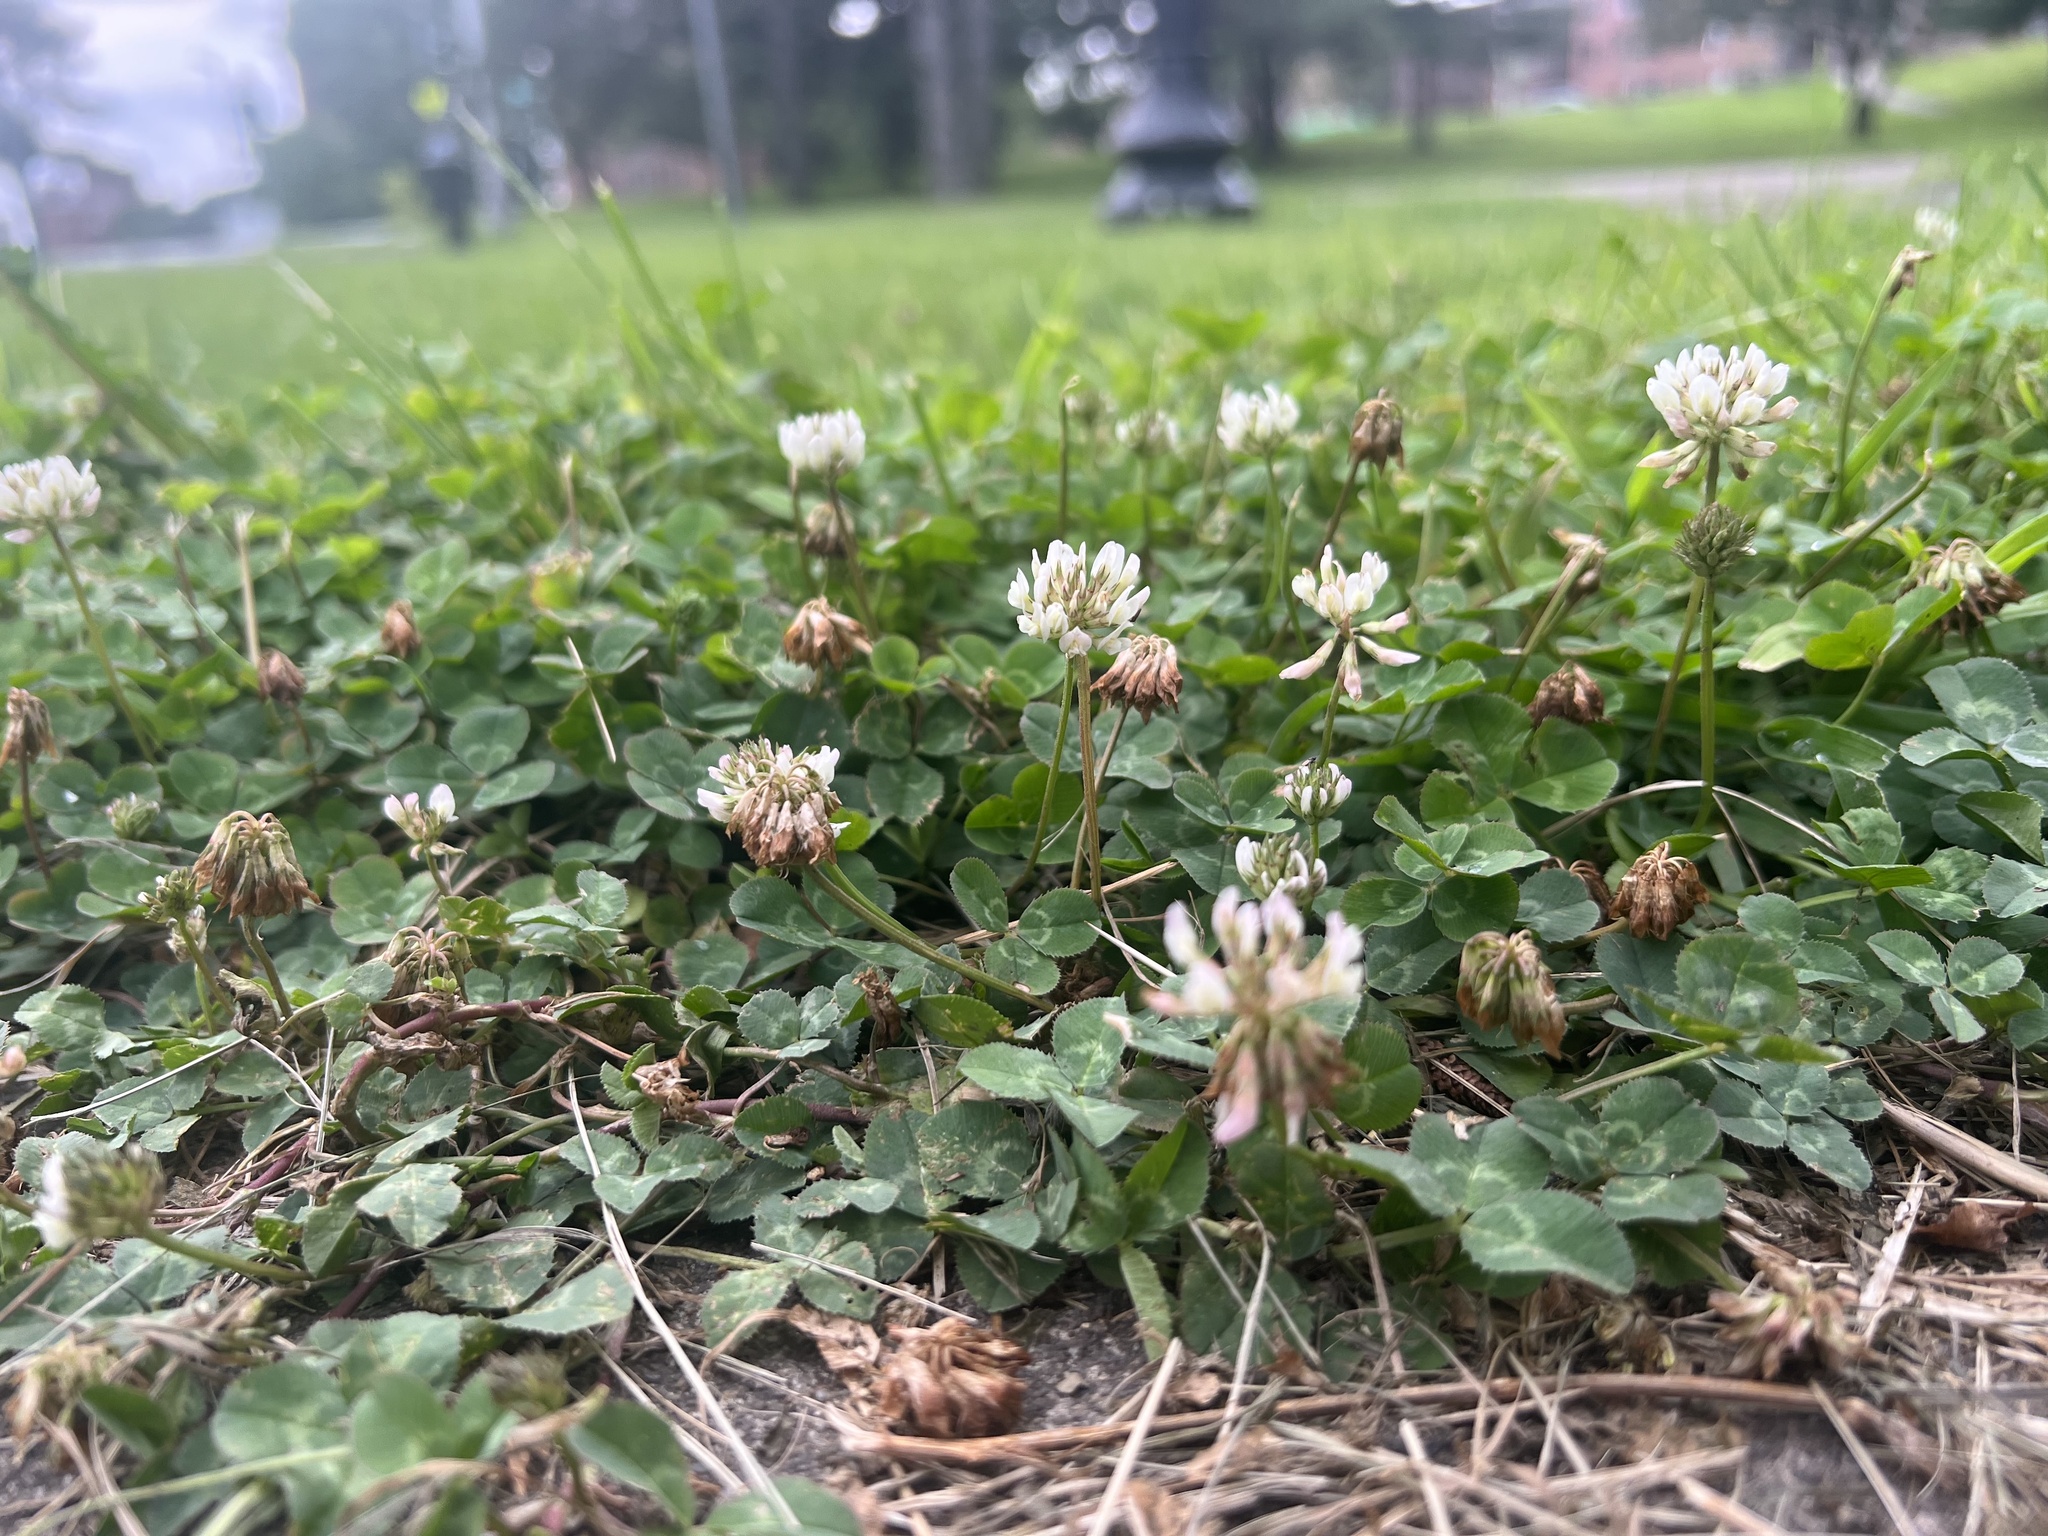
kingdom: Plantae
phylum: Tracheophyta
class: Magnoliopsida
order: Fabales
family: Fabaceae
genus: Trifolium
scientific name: Trifolium repens
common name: White clover
